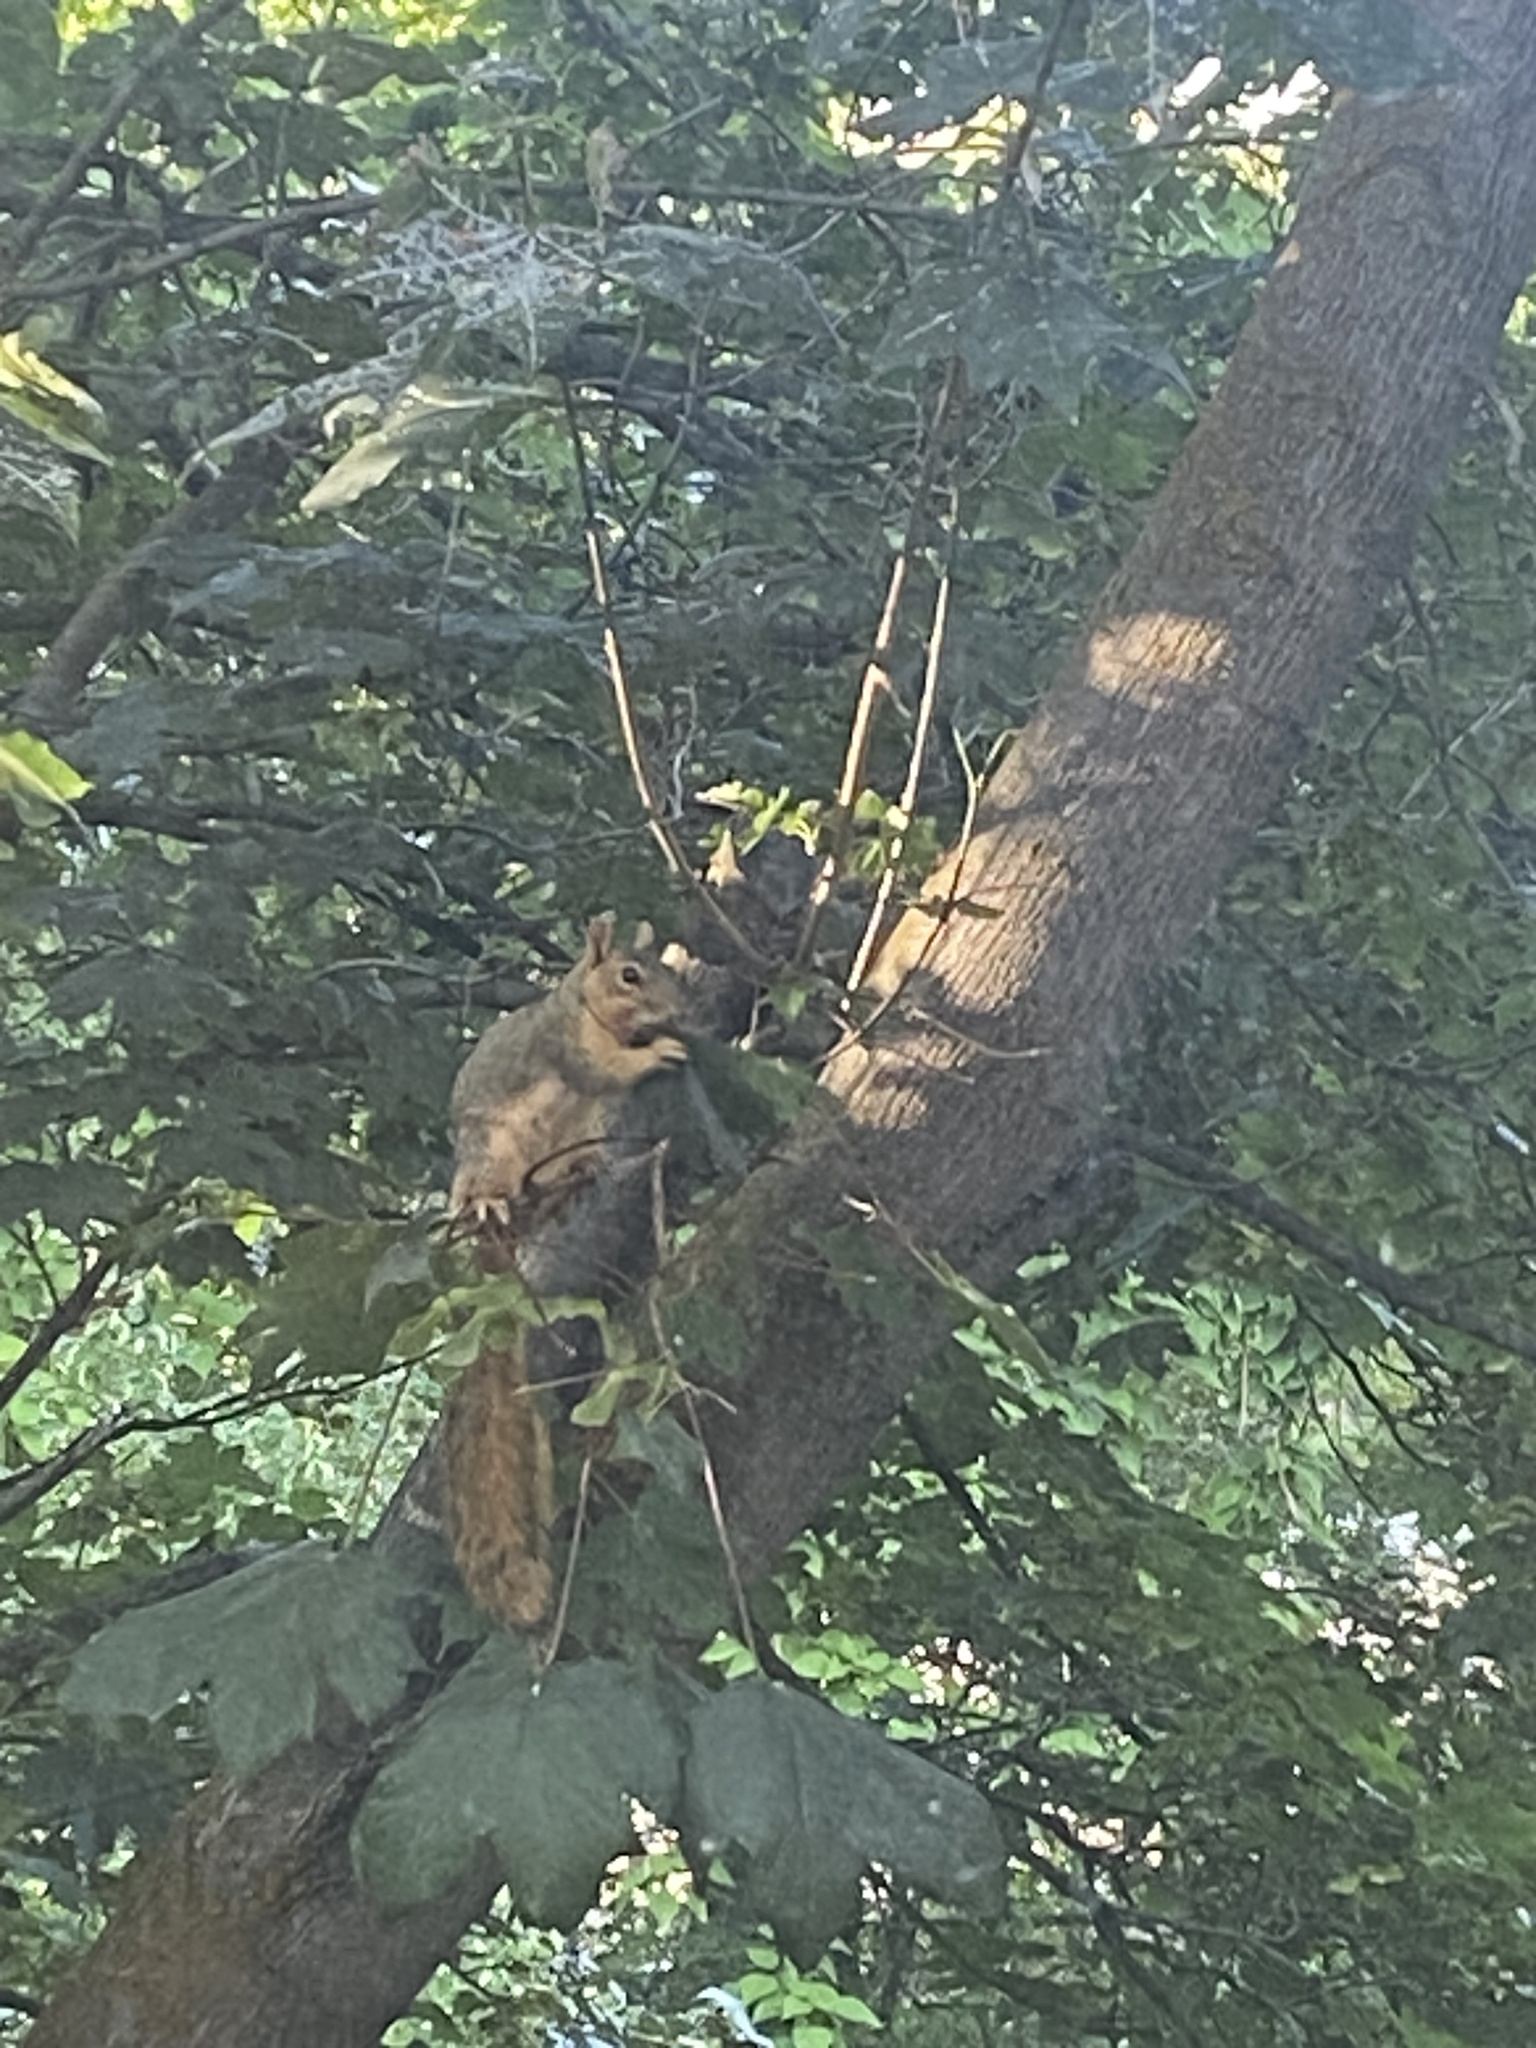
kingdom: Animalia
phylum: Chordata
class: Mammalia
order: Rodentia
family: Sciuridae
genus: Sciurus
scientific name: Sciurus niger
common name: Fox squirrel
